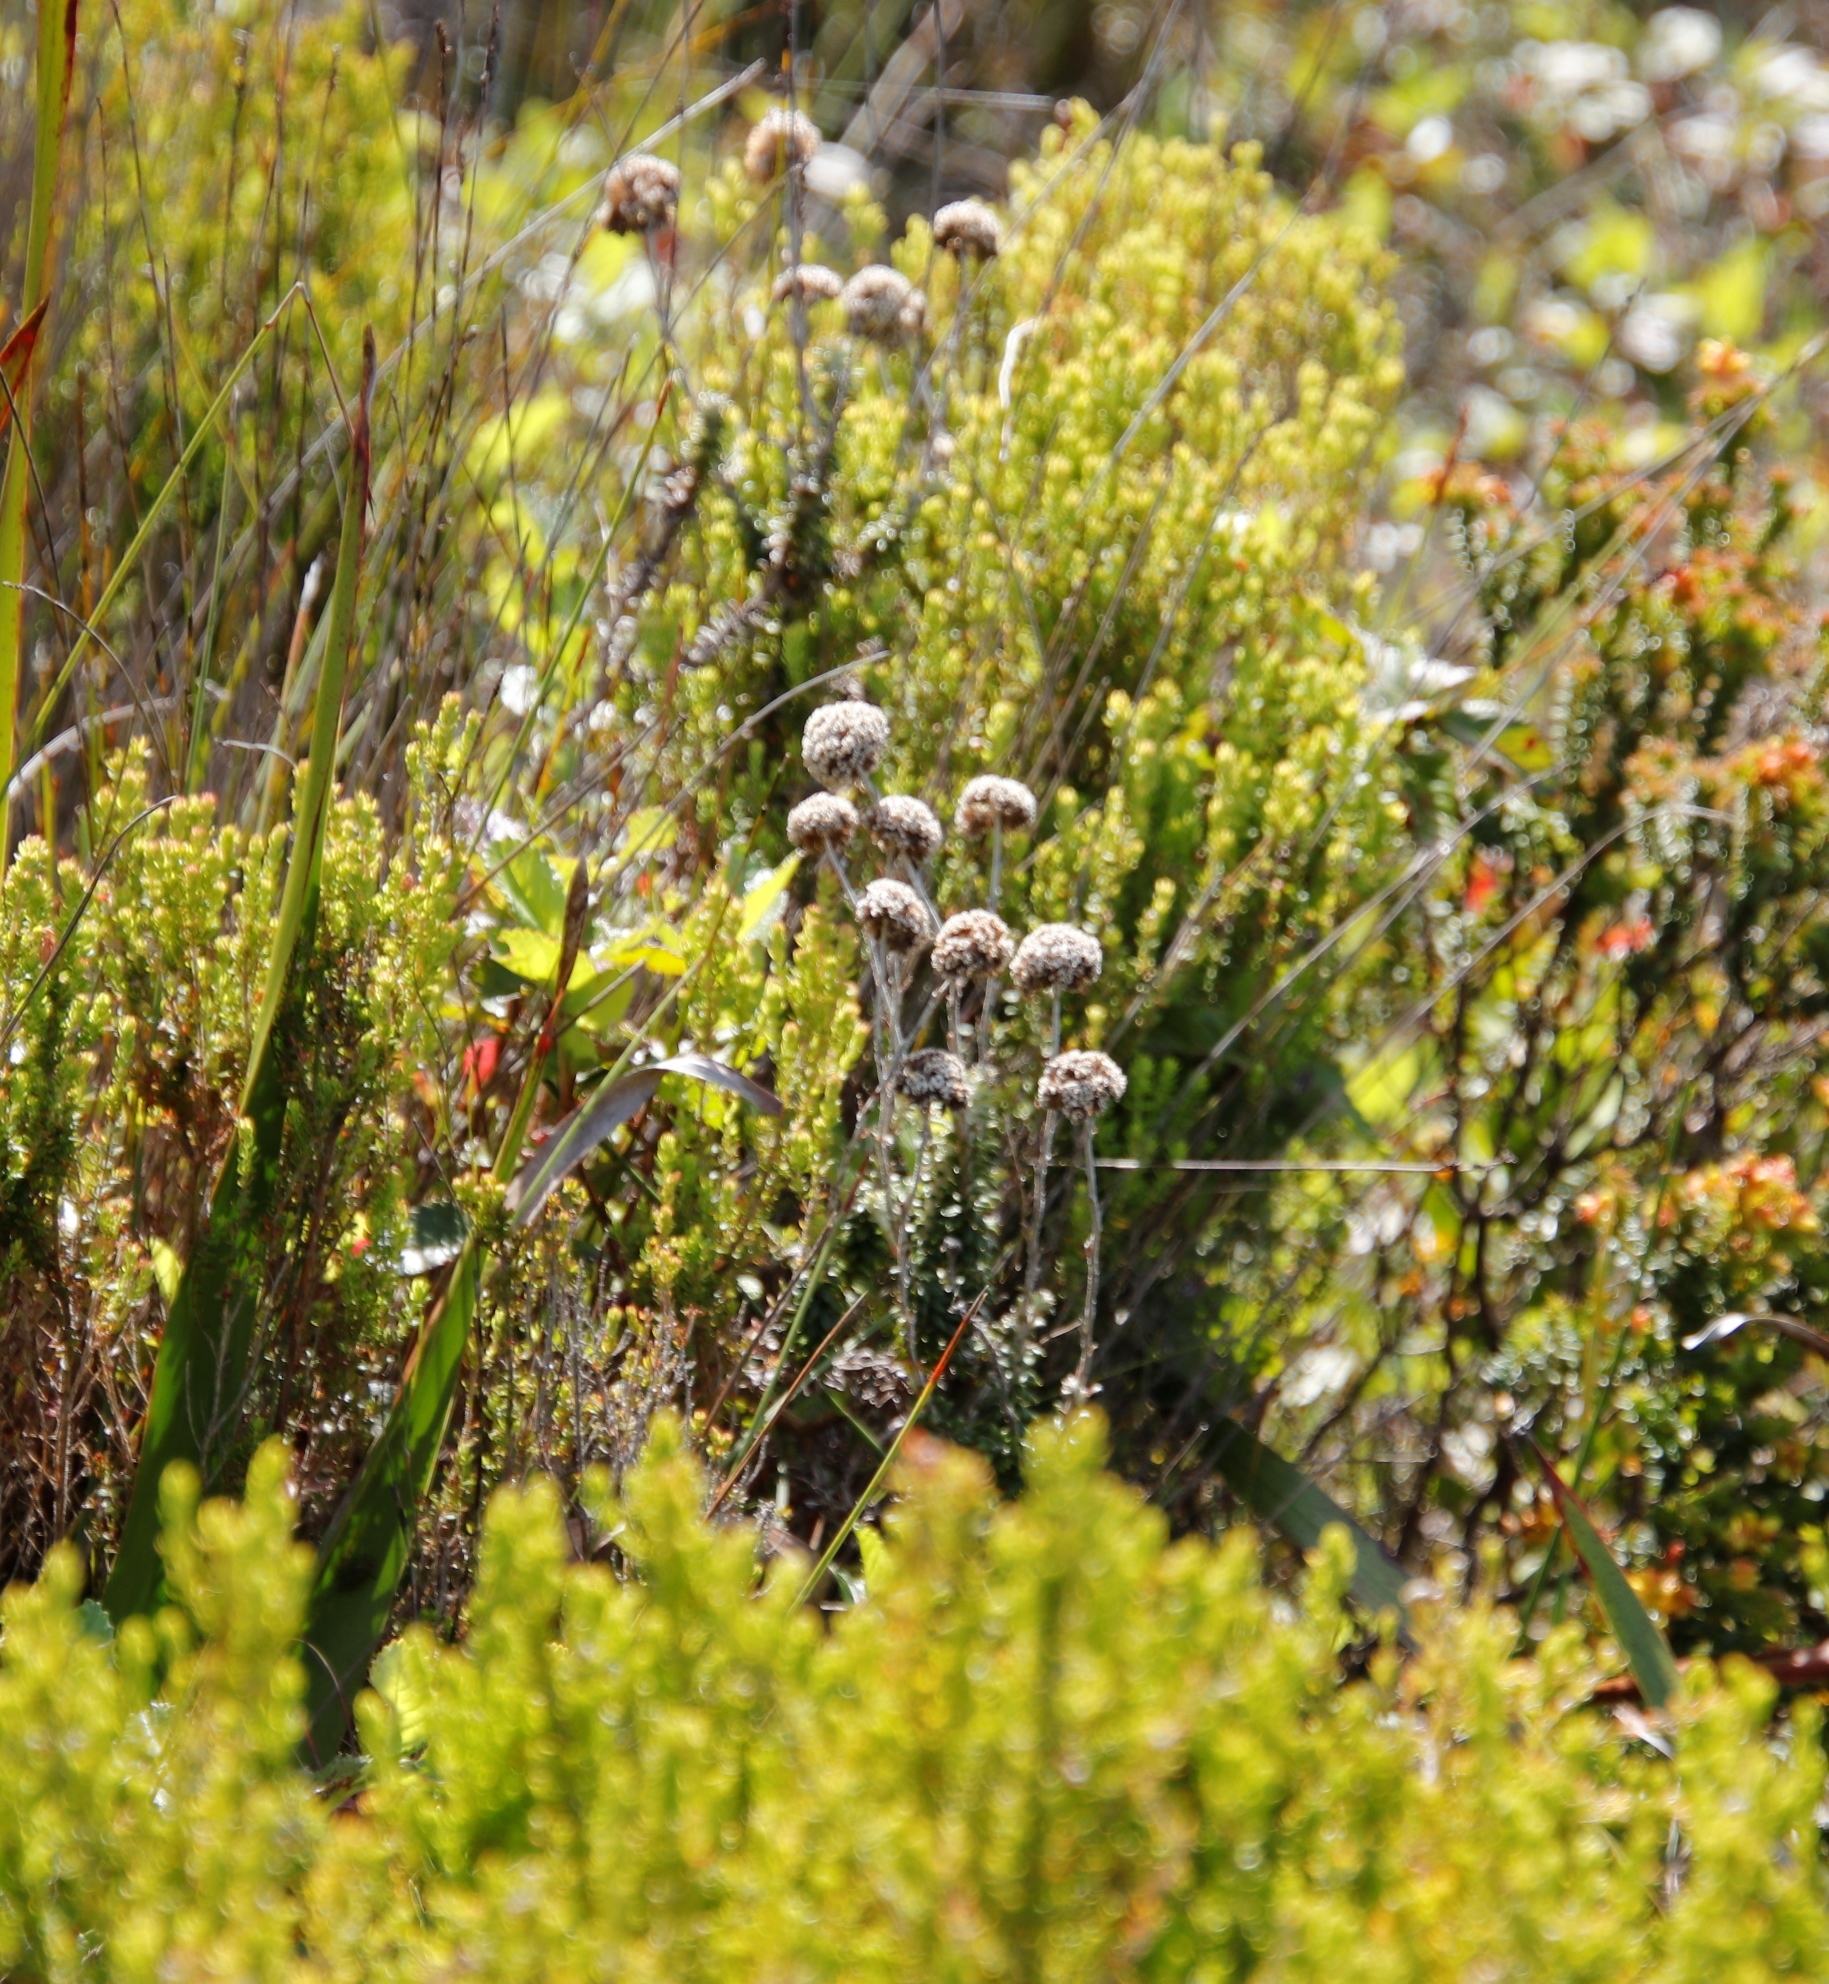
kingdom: Plantae
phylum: Tracheophyta
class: Magnoliopsida
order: Asterales
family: Asteraceae
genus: Anaxeton
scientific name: Anaxeton arborescens
